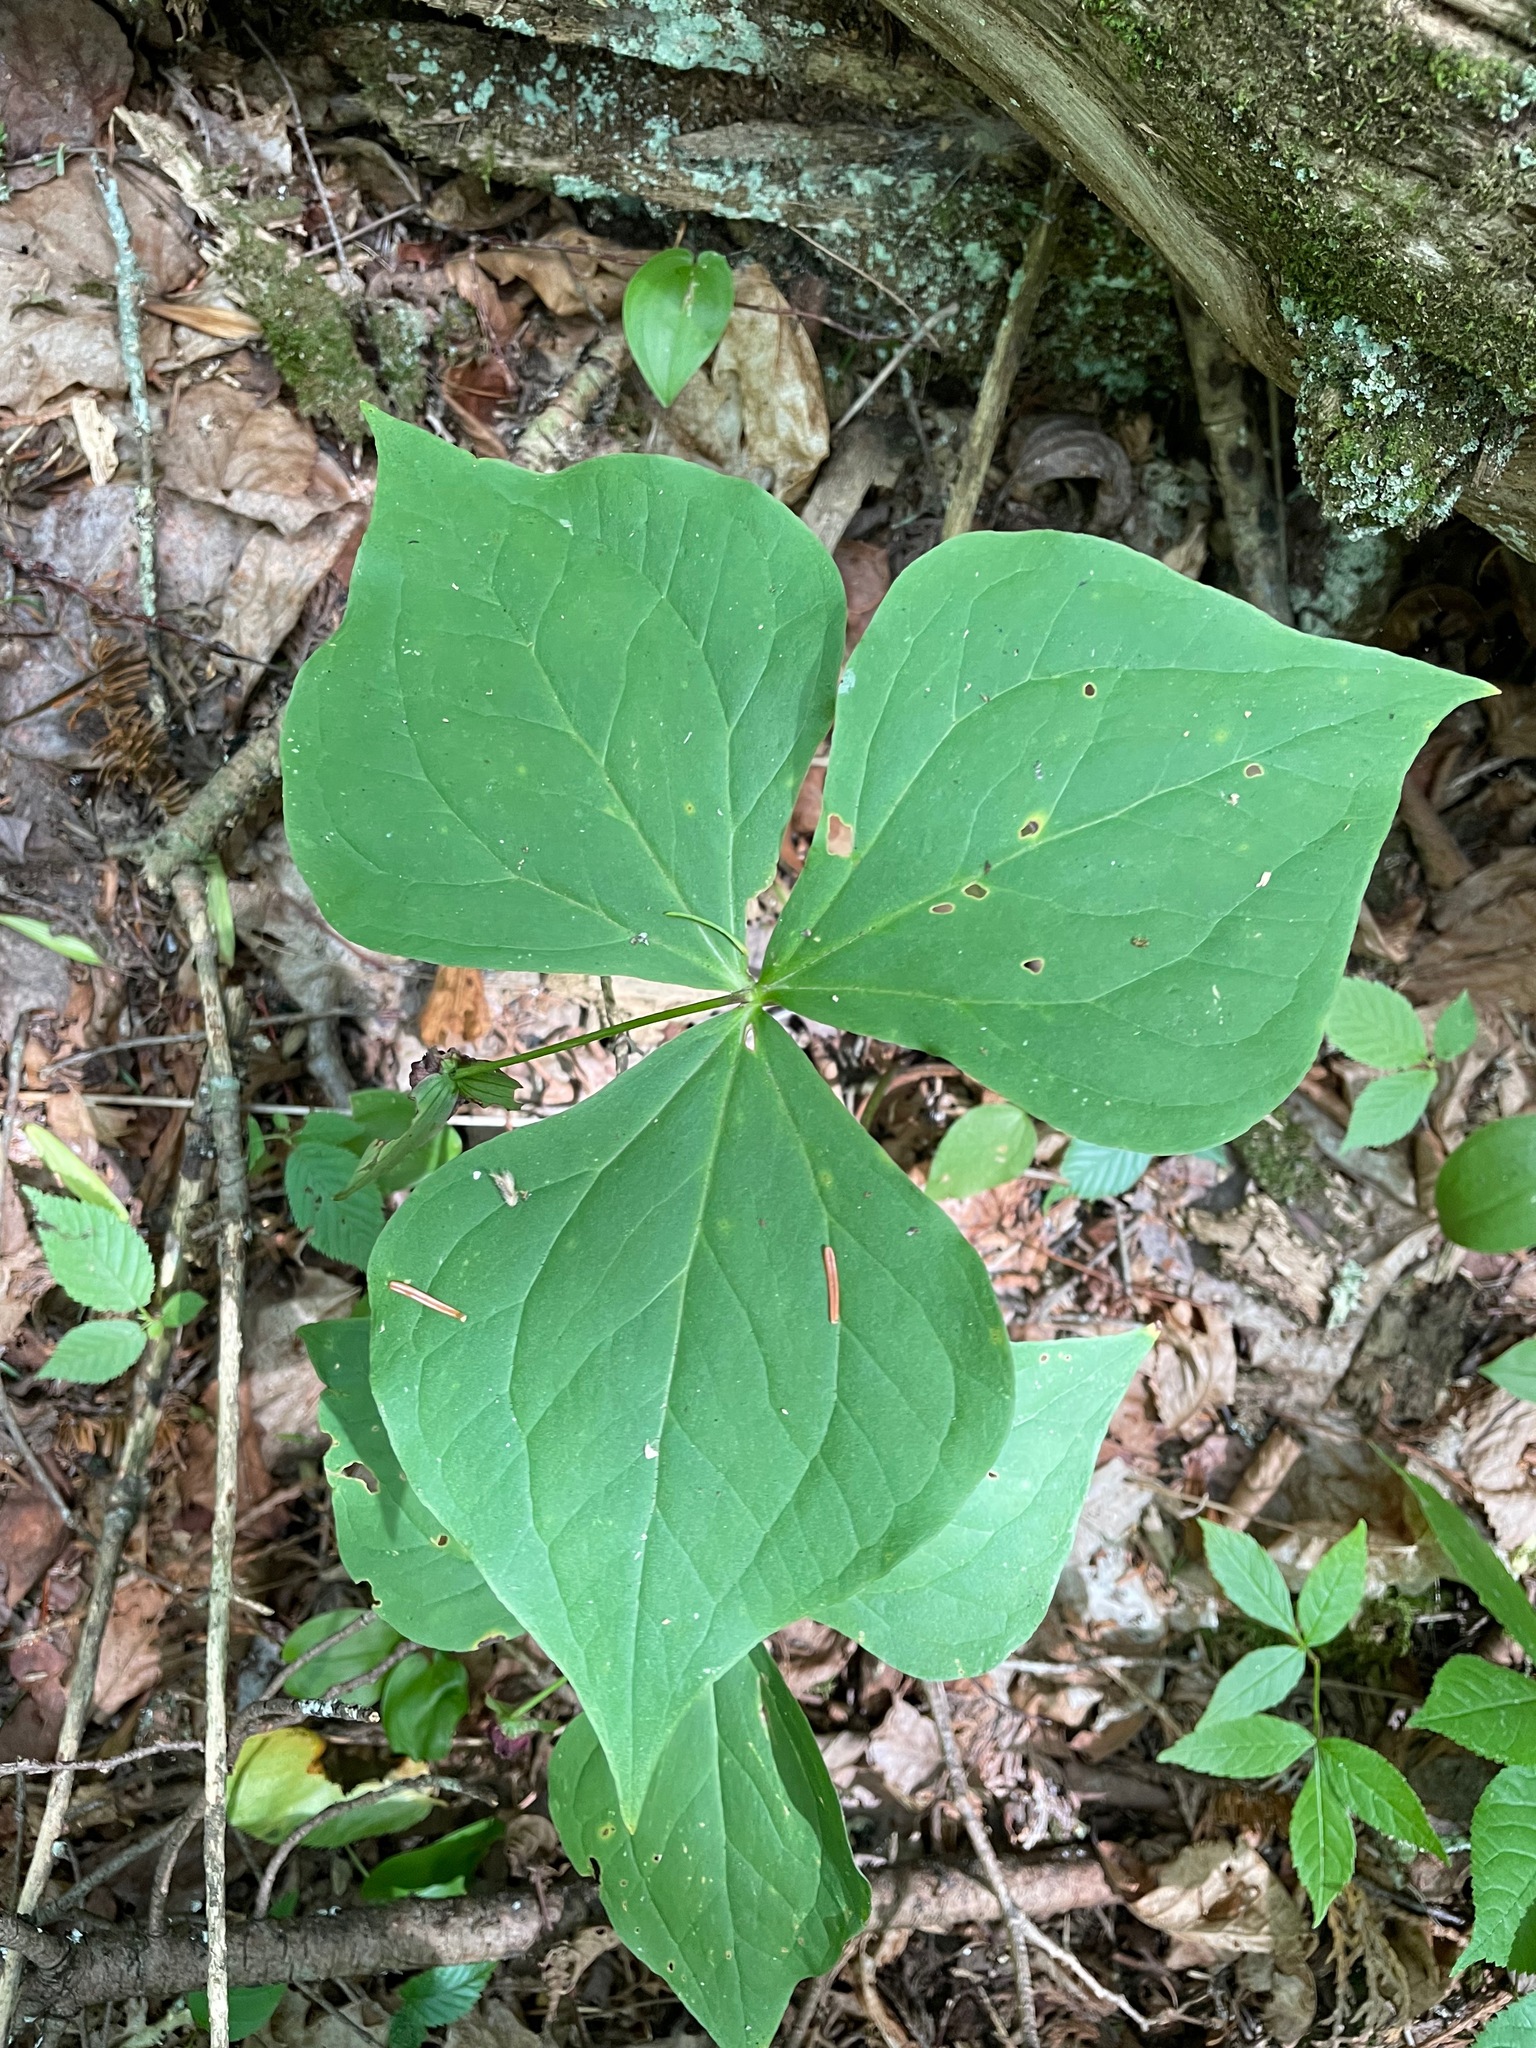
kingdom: Plantae
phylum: Tracheophyta
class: Liliopsida
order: Liliales
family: Melanthiaceae
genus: Trillium
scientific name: Trillium erectum
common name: Purple trillium
